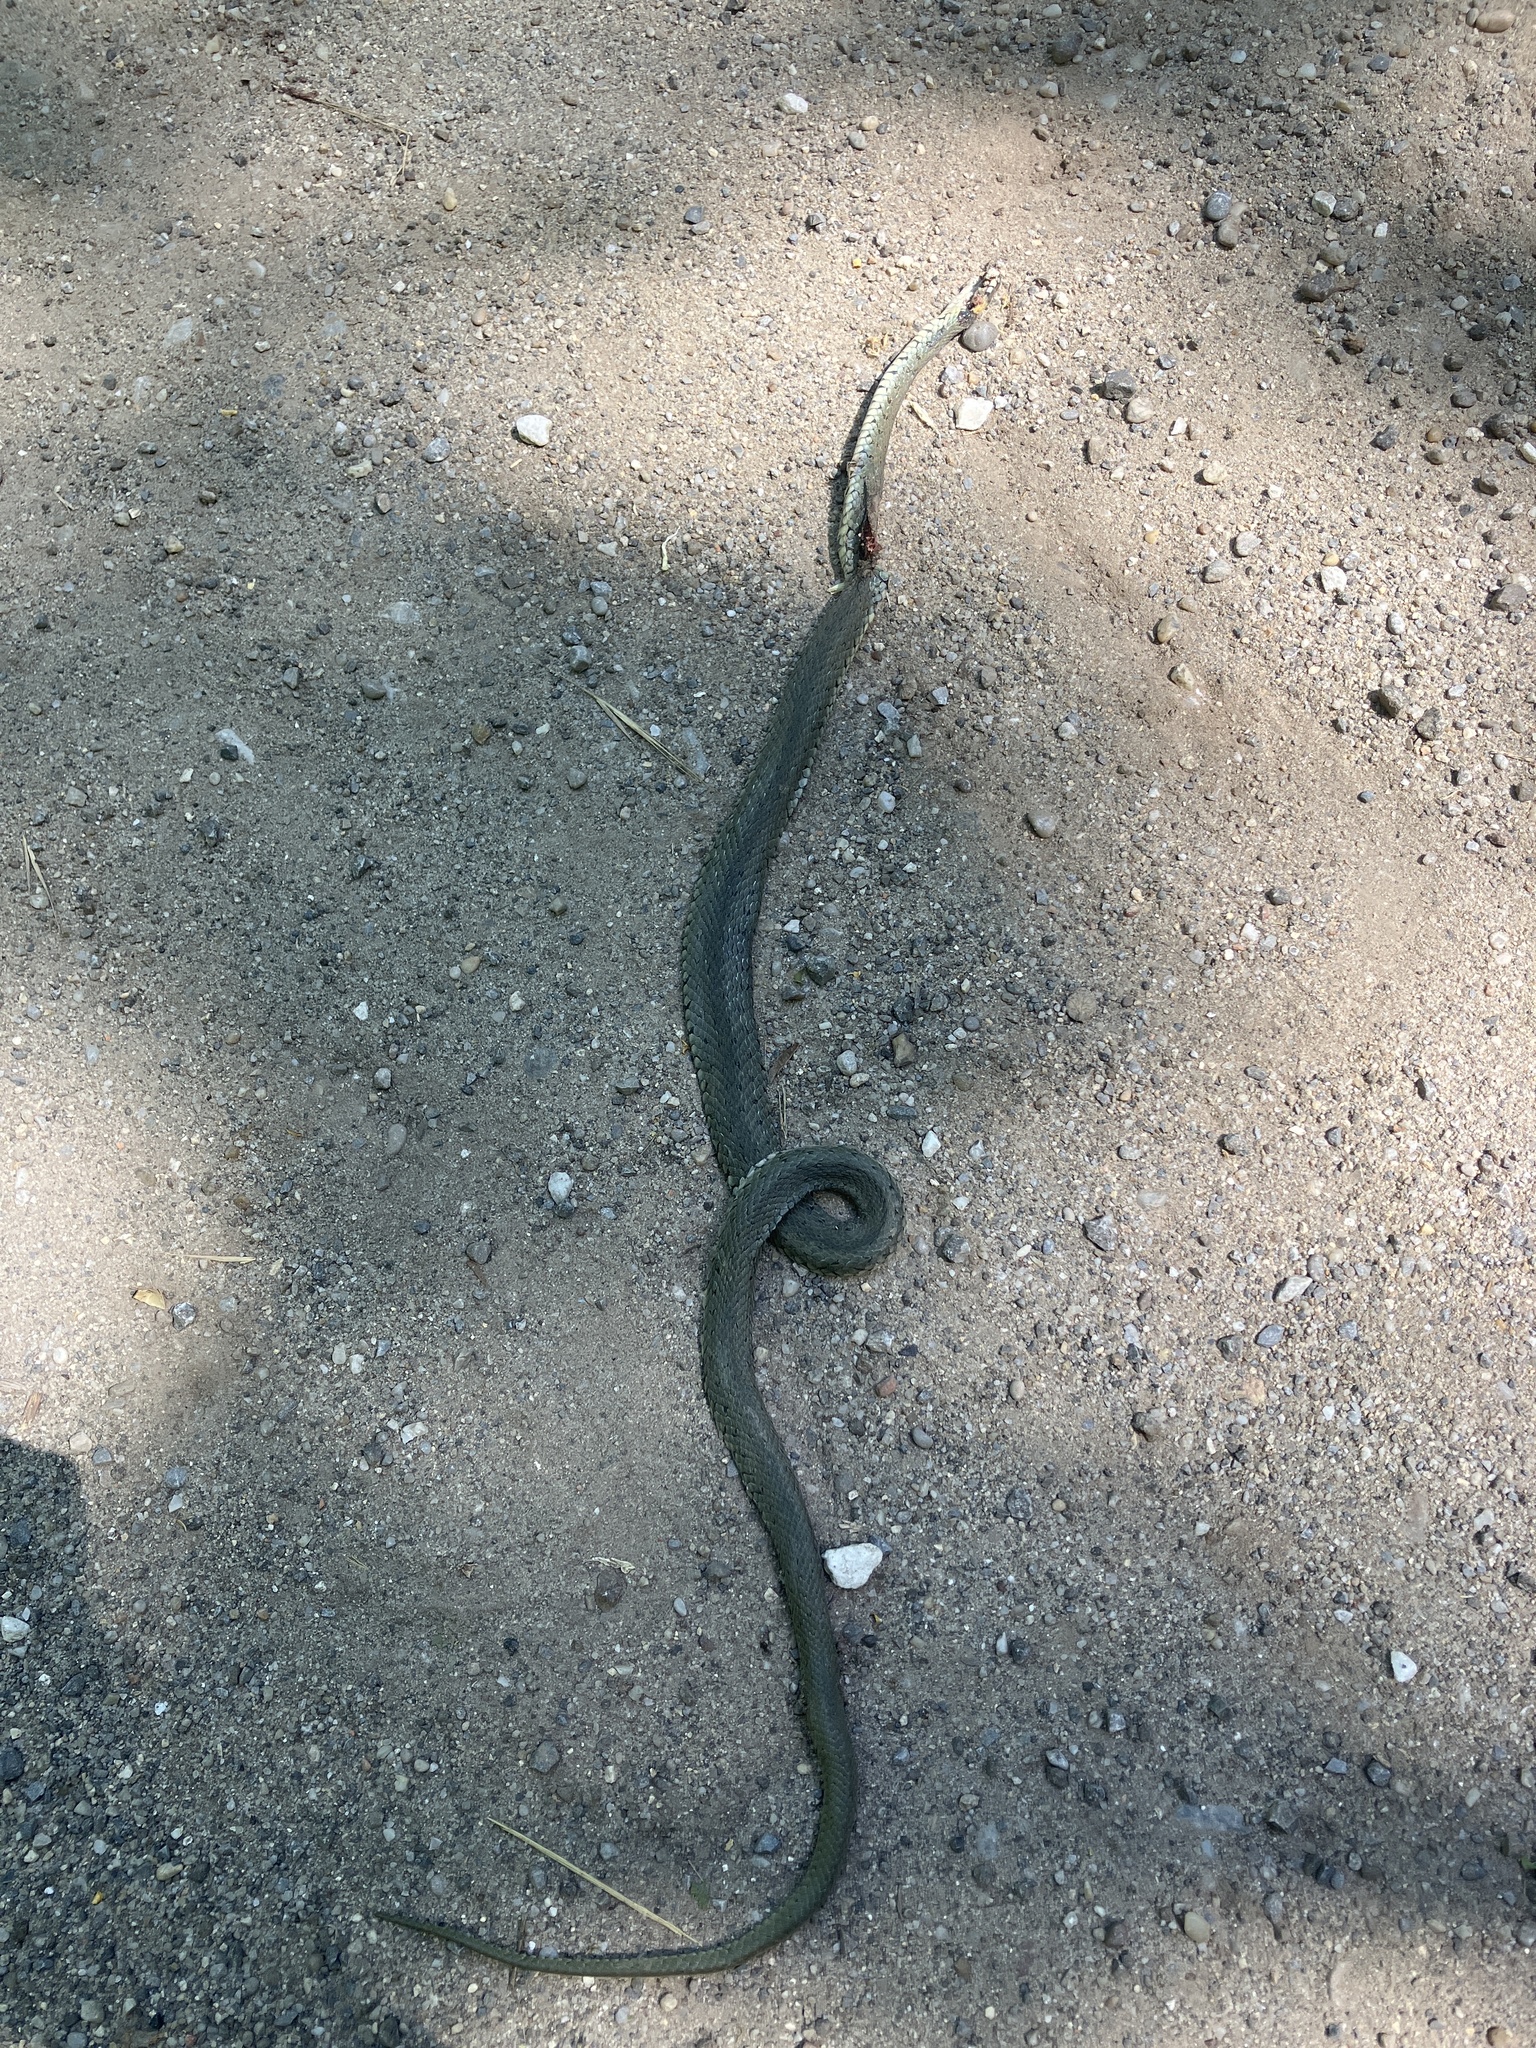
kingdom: Animalia
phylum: Chordata
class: Squamata
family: Colubridae
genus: Natrix
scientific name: Natrix natrix
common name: Grass snake
